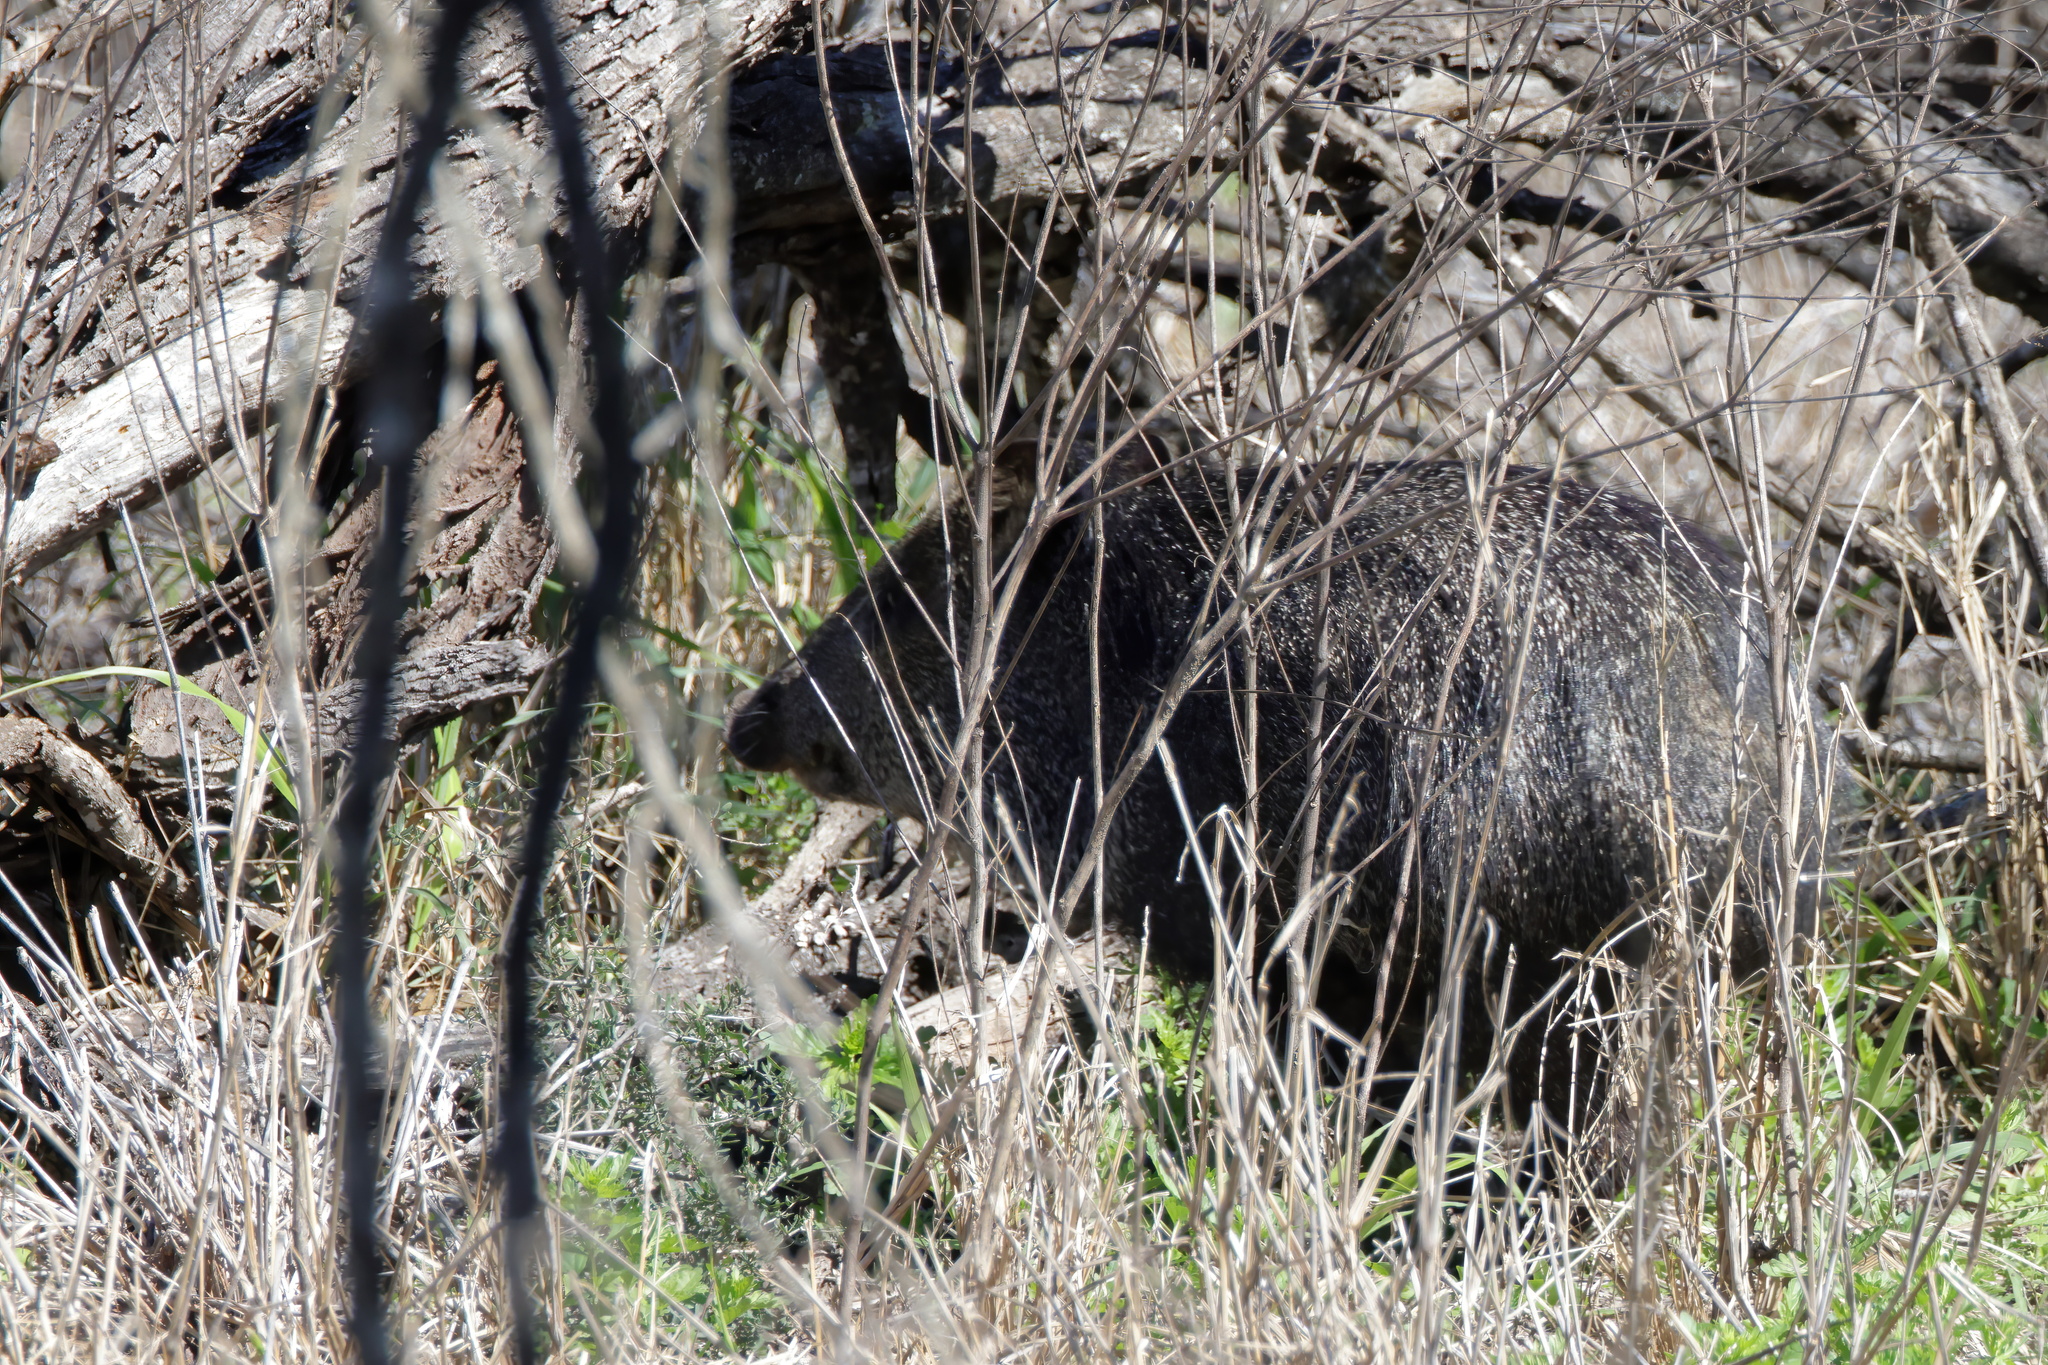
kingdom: Animalia
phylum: Chordata
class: Mammalia
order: Artiodactyla
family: Tayassuidae
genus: Pecari
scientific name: Pecari tajacu
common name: Collared peccary
